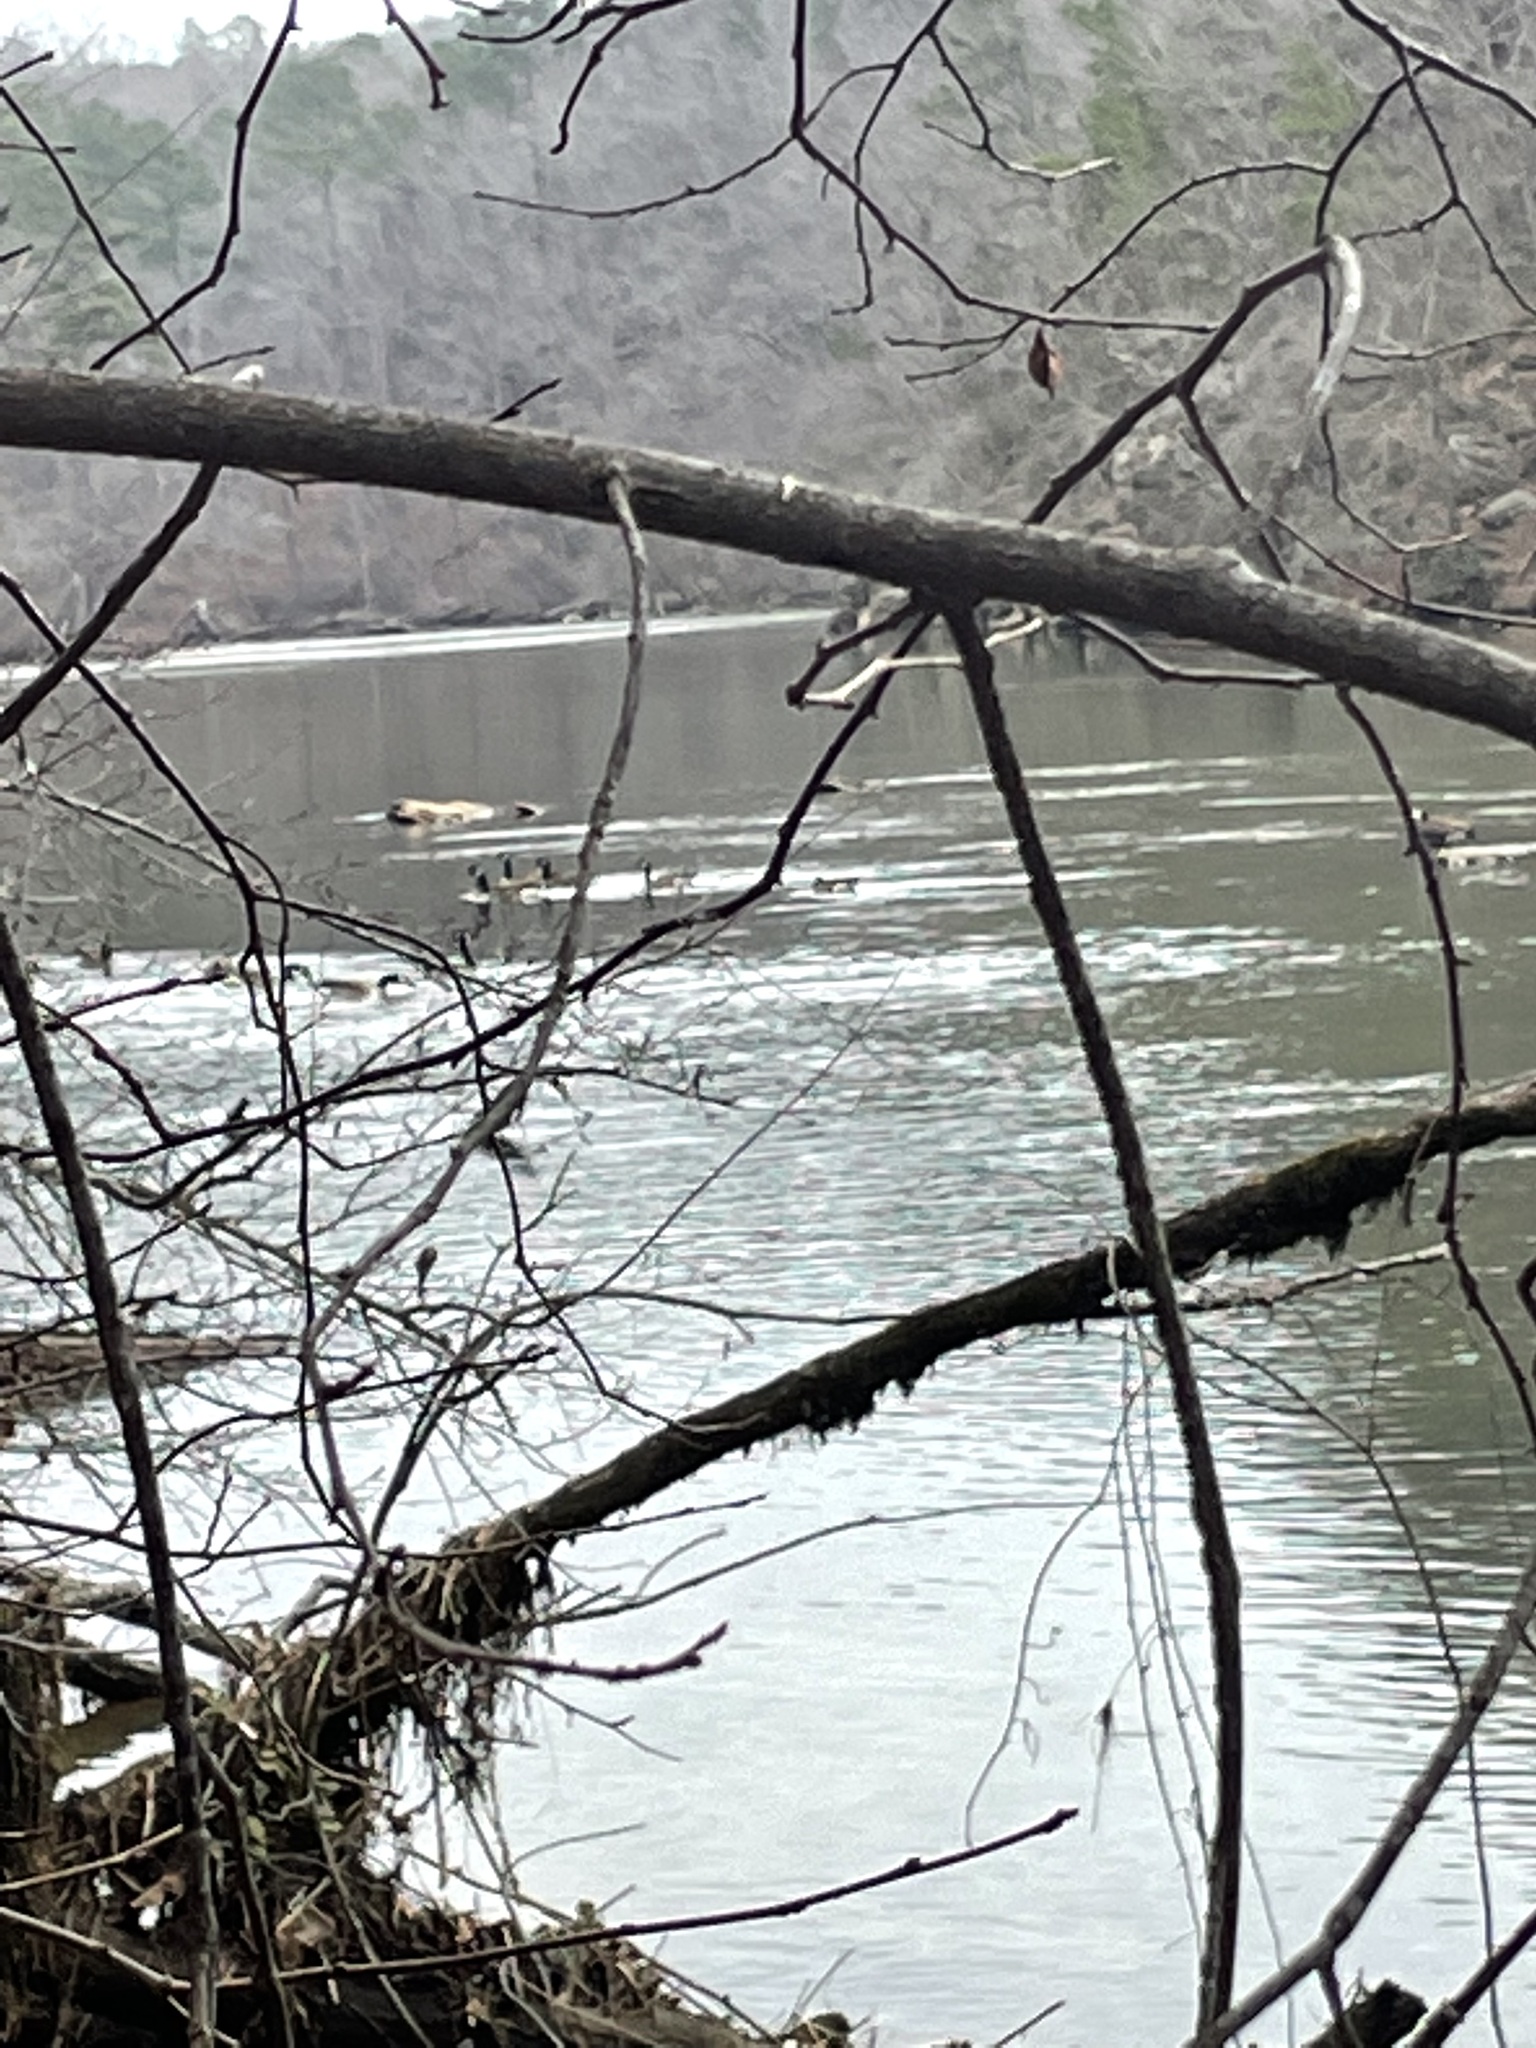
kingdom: Animalia
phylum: Chordata
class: Aves
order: Anseriformes
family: Anatidae
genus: Branta
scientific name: Branta canadensis
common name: Canada goose
